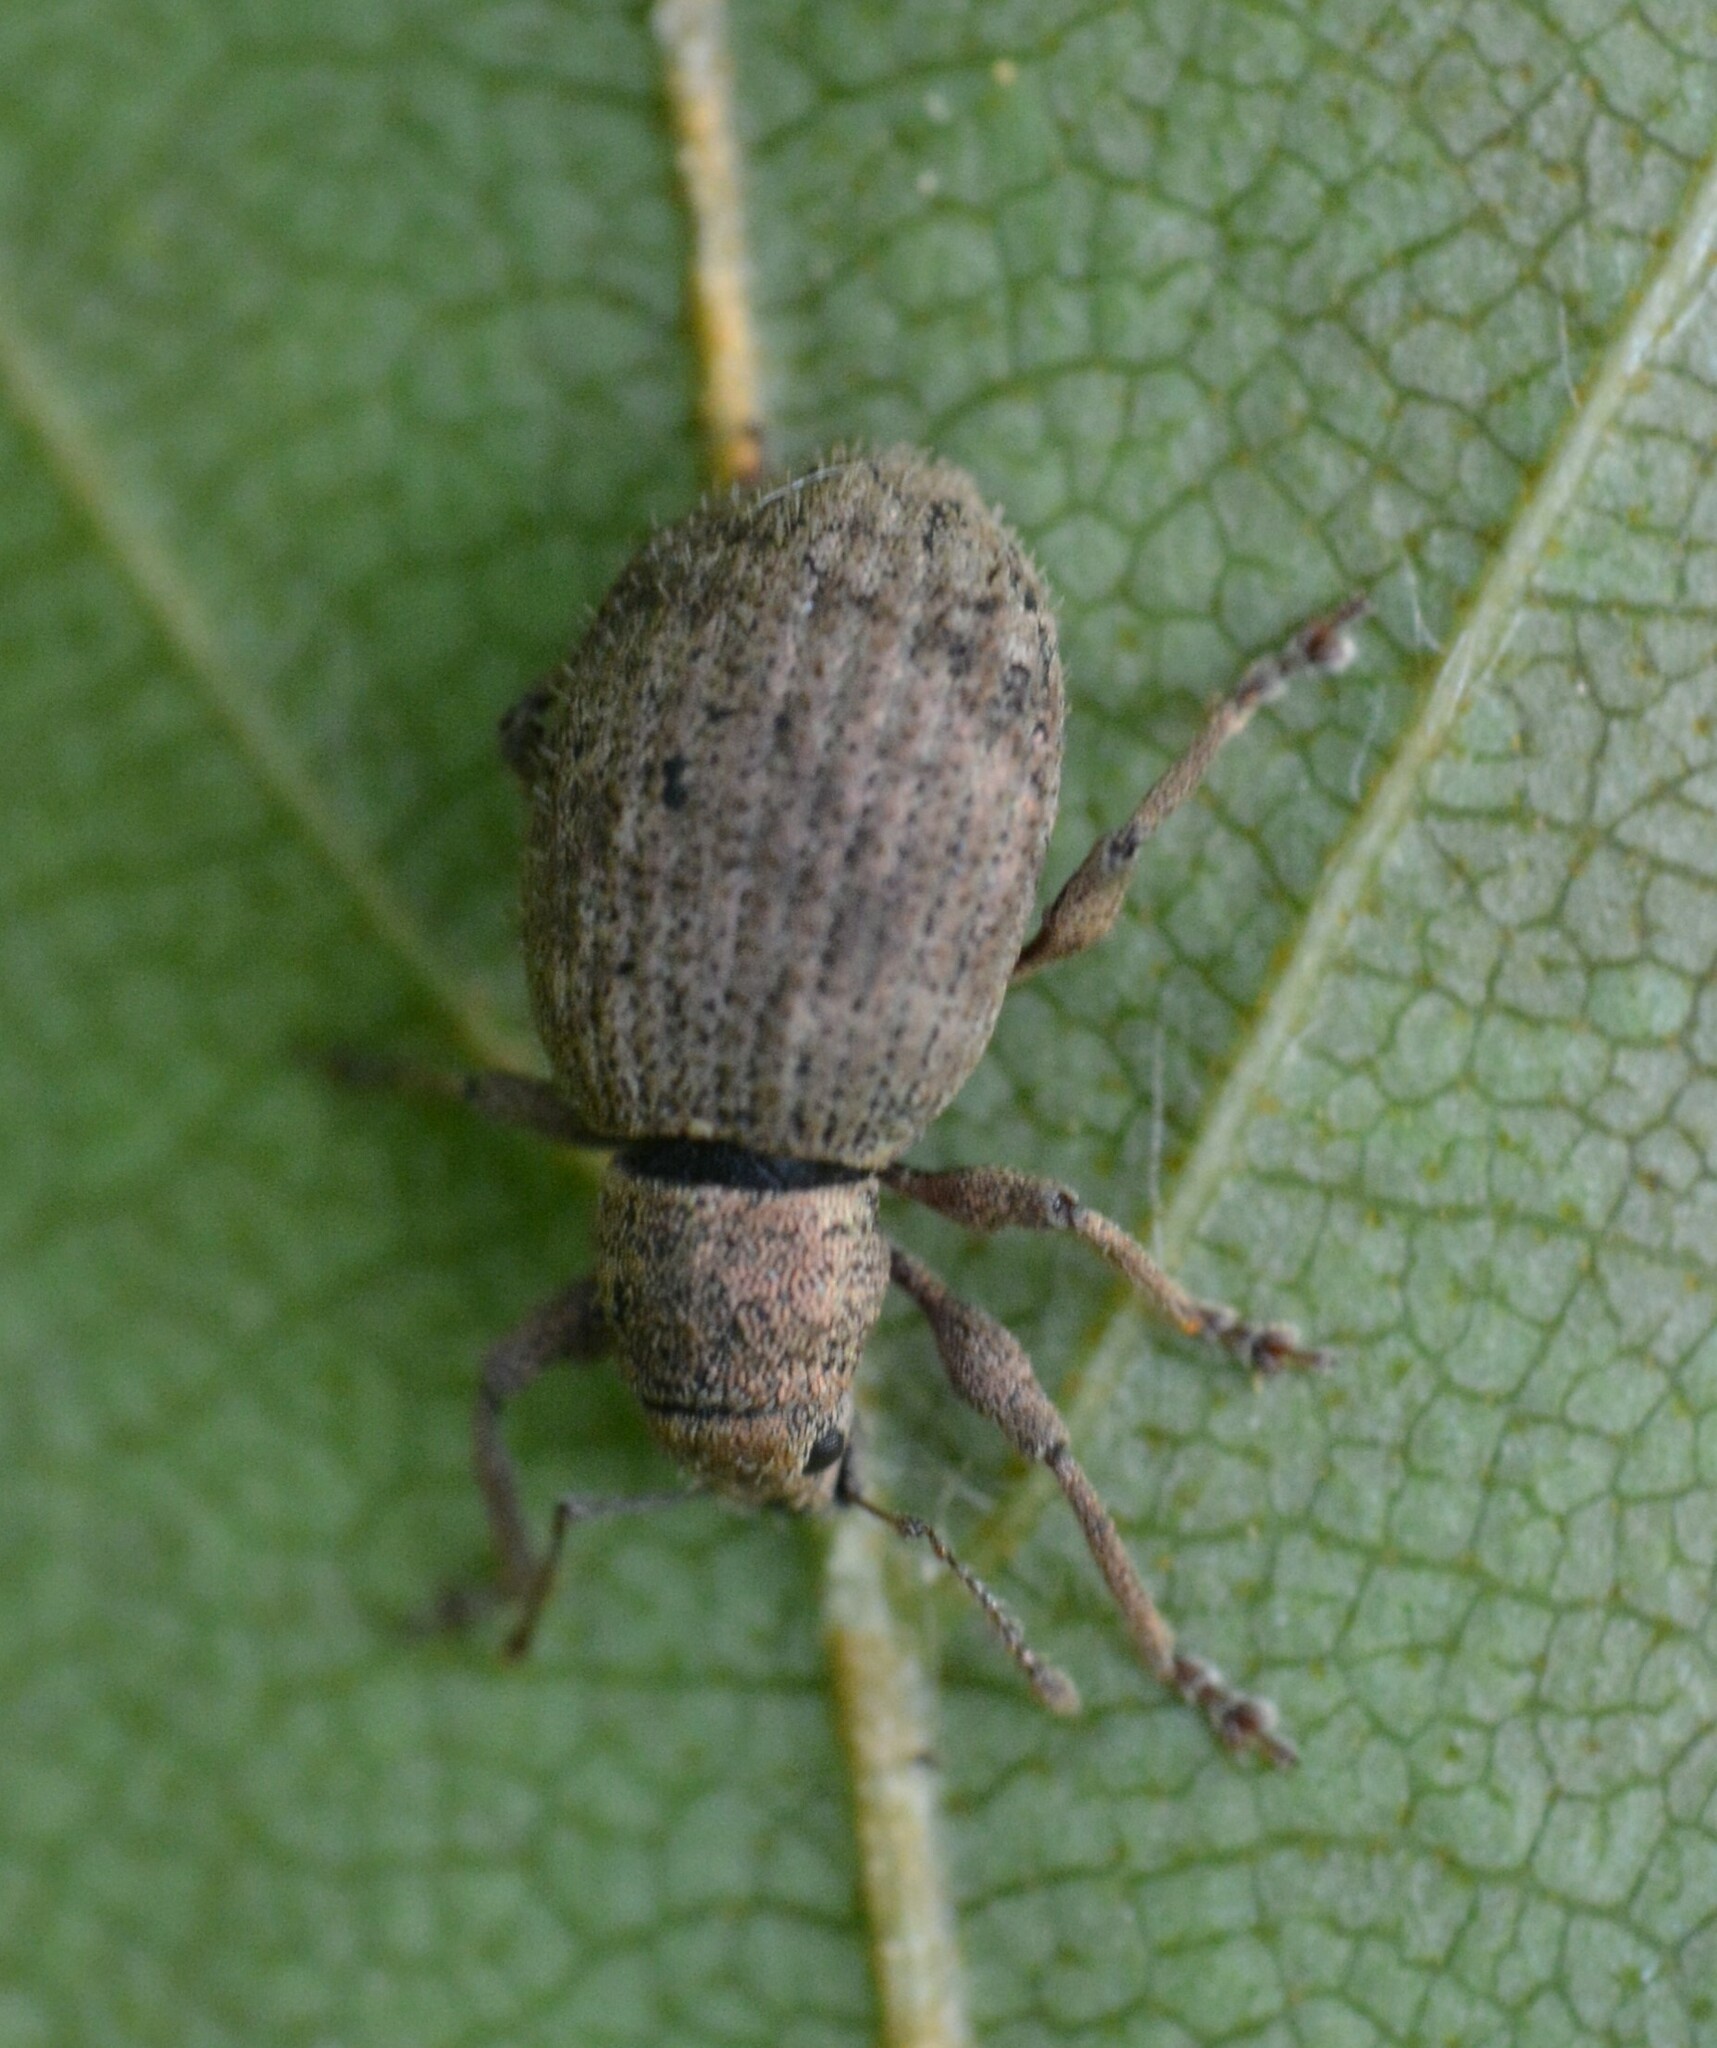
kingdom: Animalia
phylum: Arthropoda
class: Insecta
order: Coleoptera
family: Curculionidae
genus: Sciaphilus
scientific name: Sciaphilus asperatus
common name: Weevil
